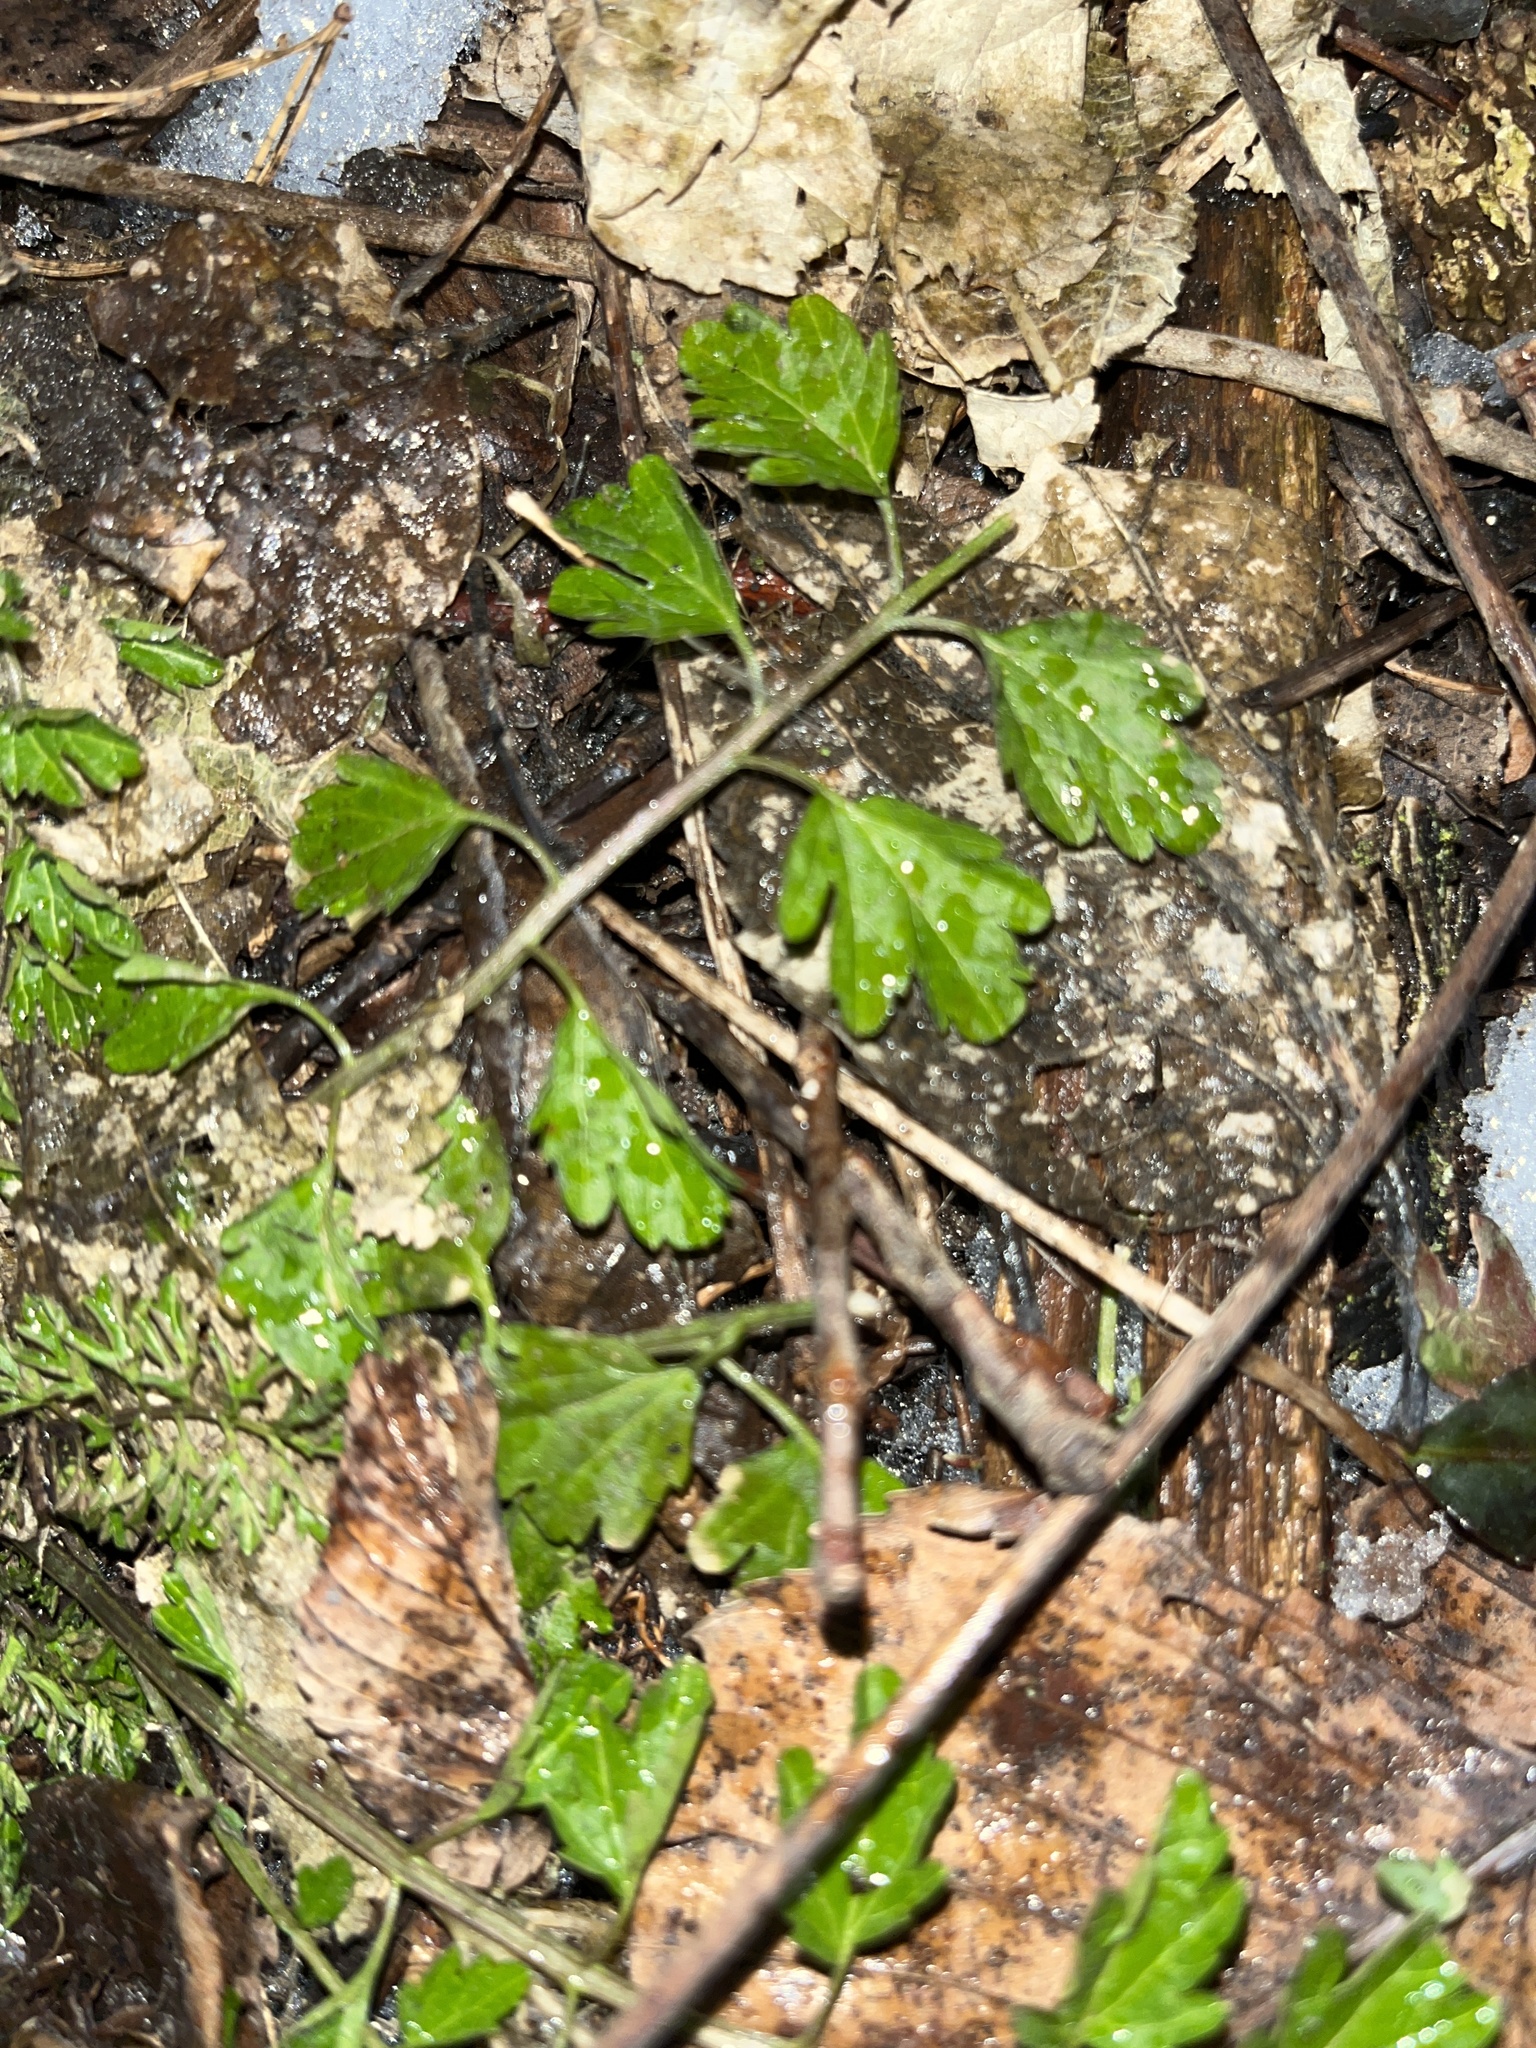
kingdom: Plantae
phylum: Tracheophyta
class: Magnoliopsida
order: Asterales
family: Asteraceae
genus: Chrysanthemum
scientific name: Chrysanthemum morifolium
